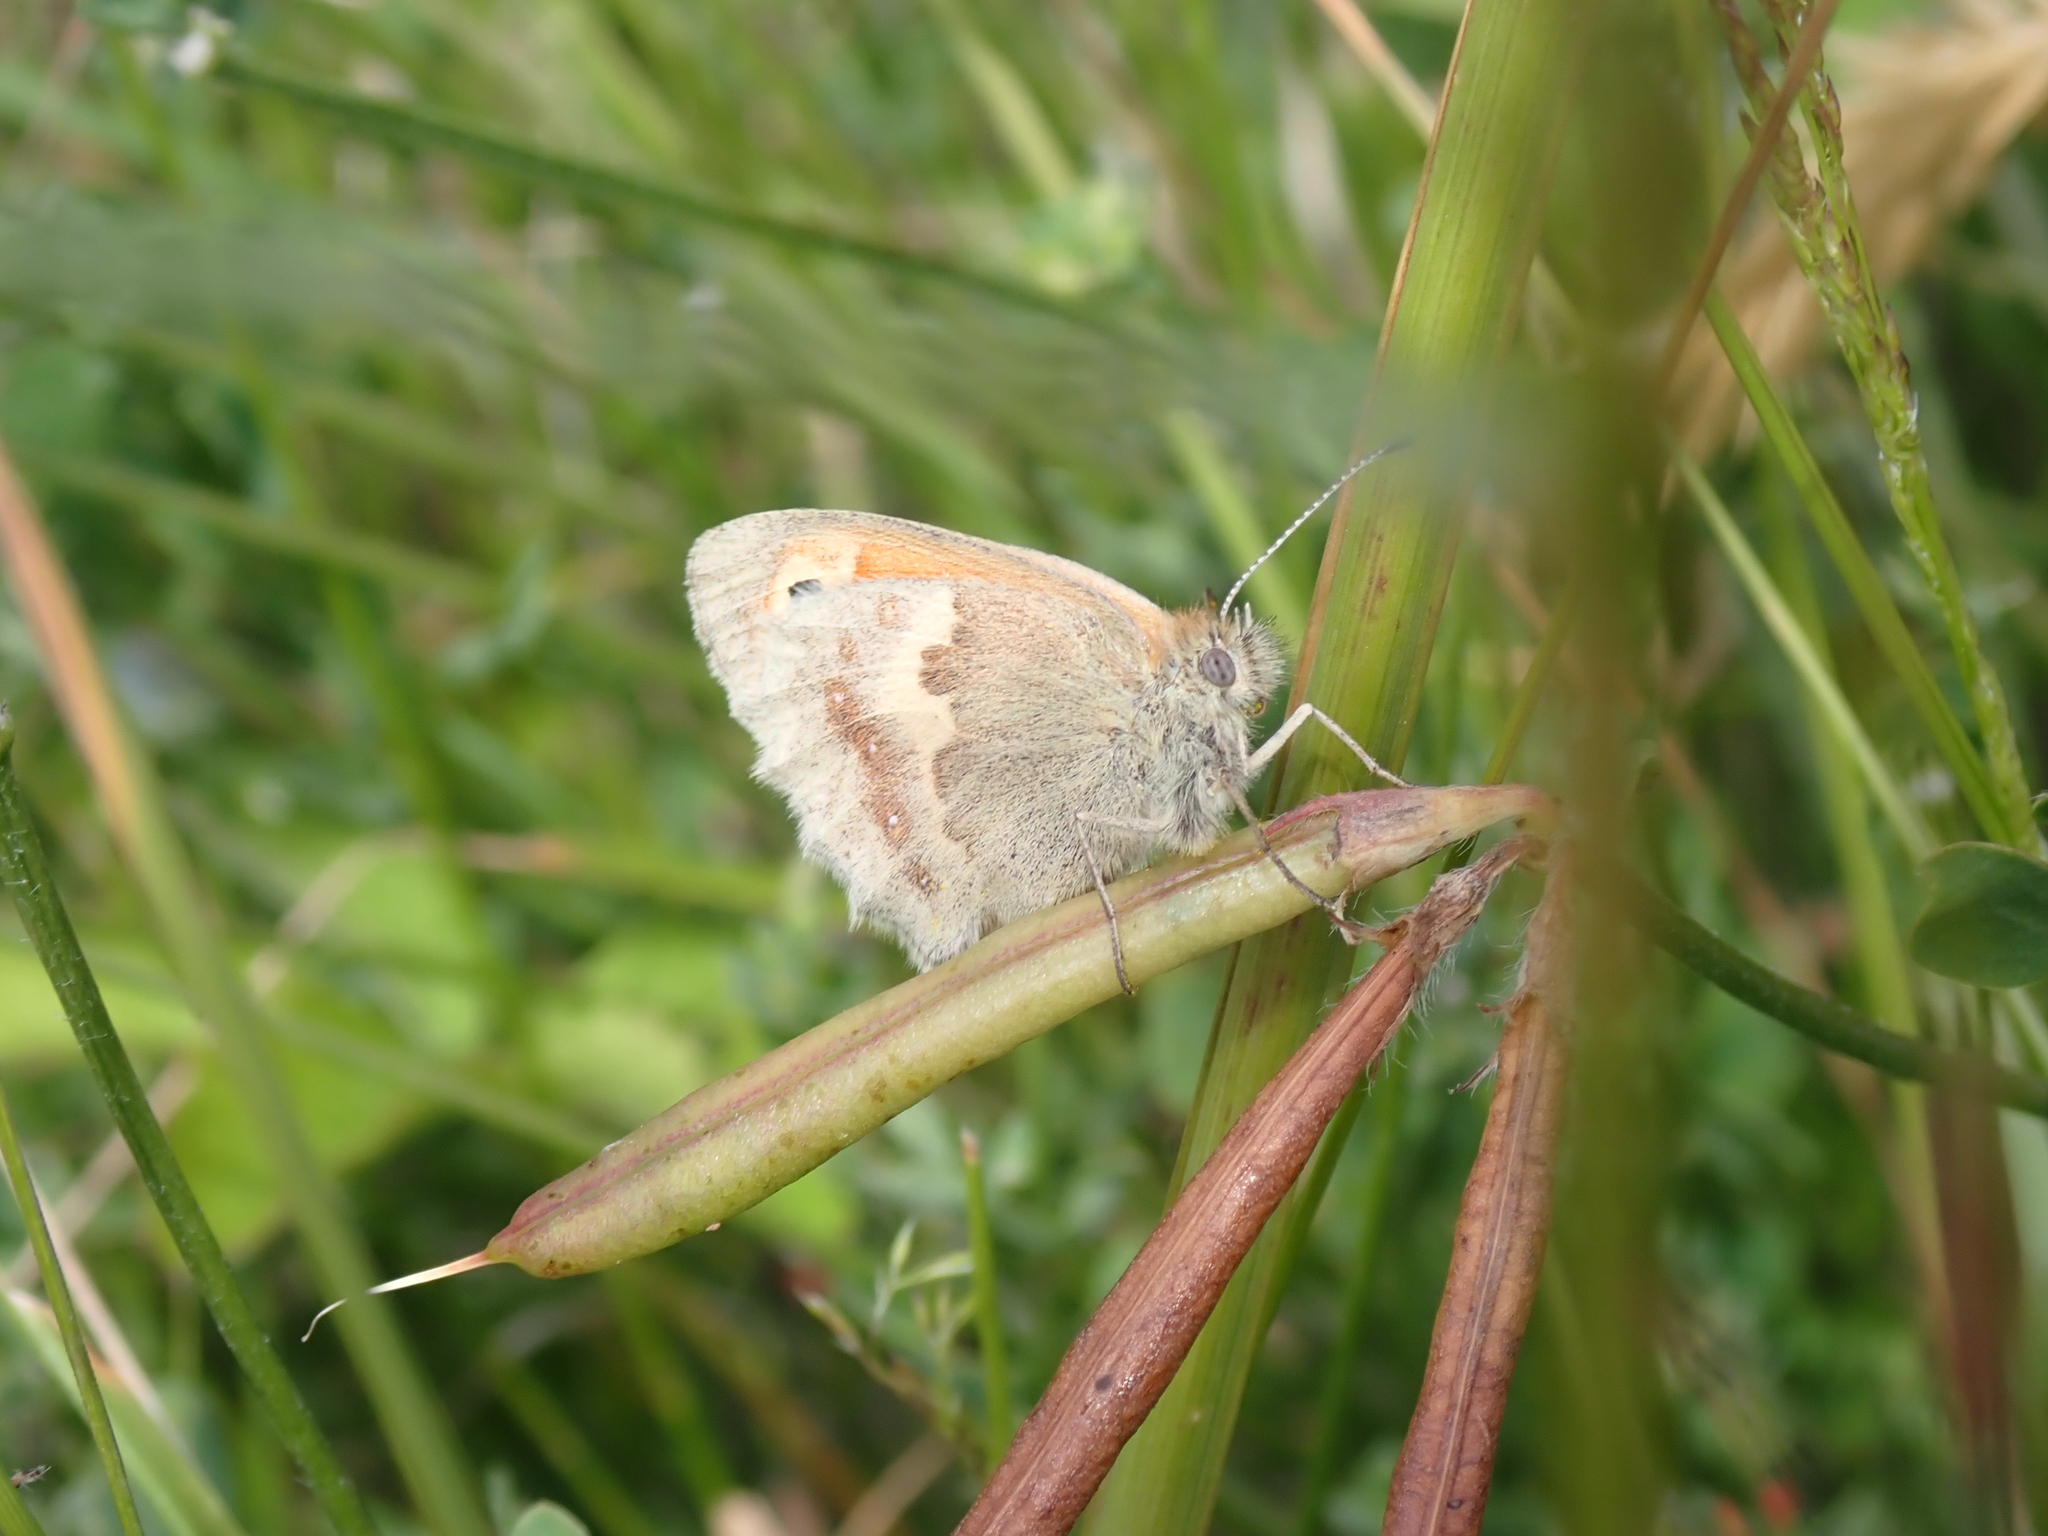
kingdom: Animalia
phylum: Arthropoda
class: Insecta
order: Lepidoptera
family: Nymphalidae
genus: Coenonympha
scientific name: Coenonympha pamphilus
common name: Small heath
